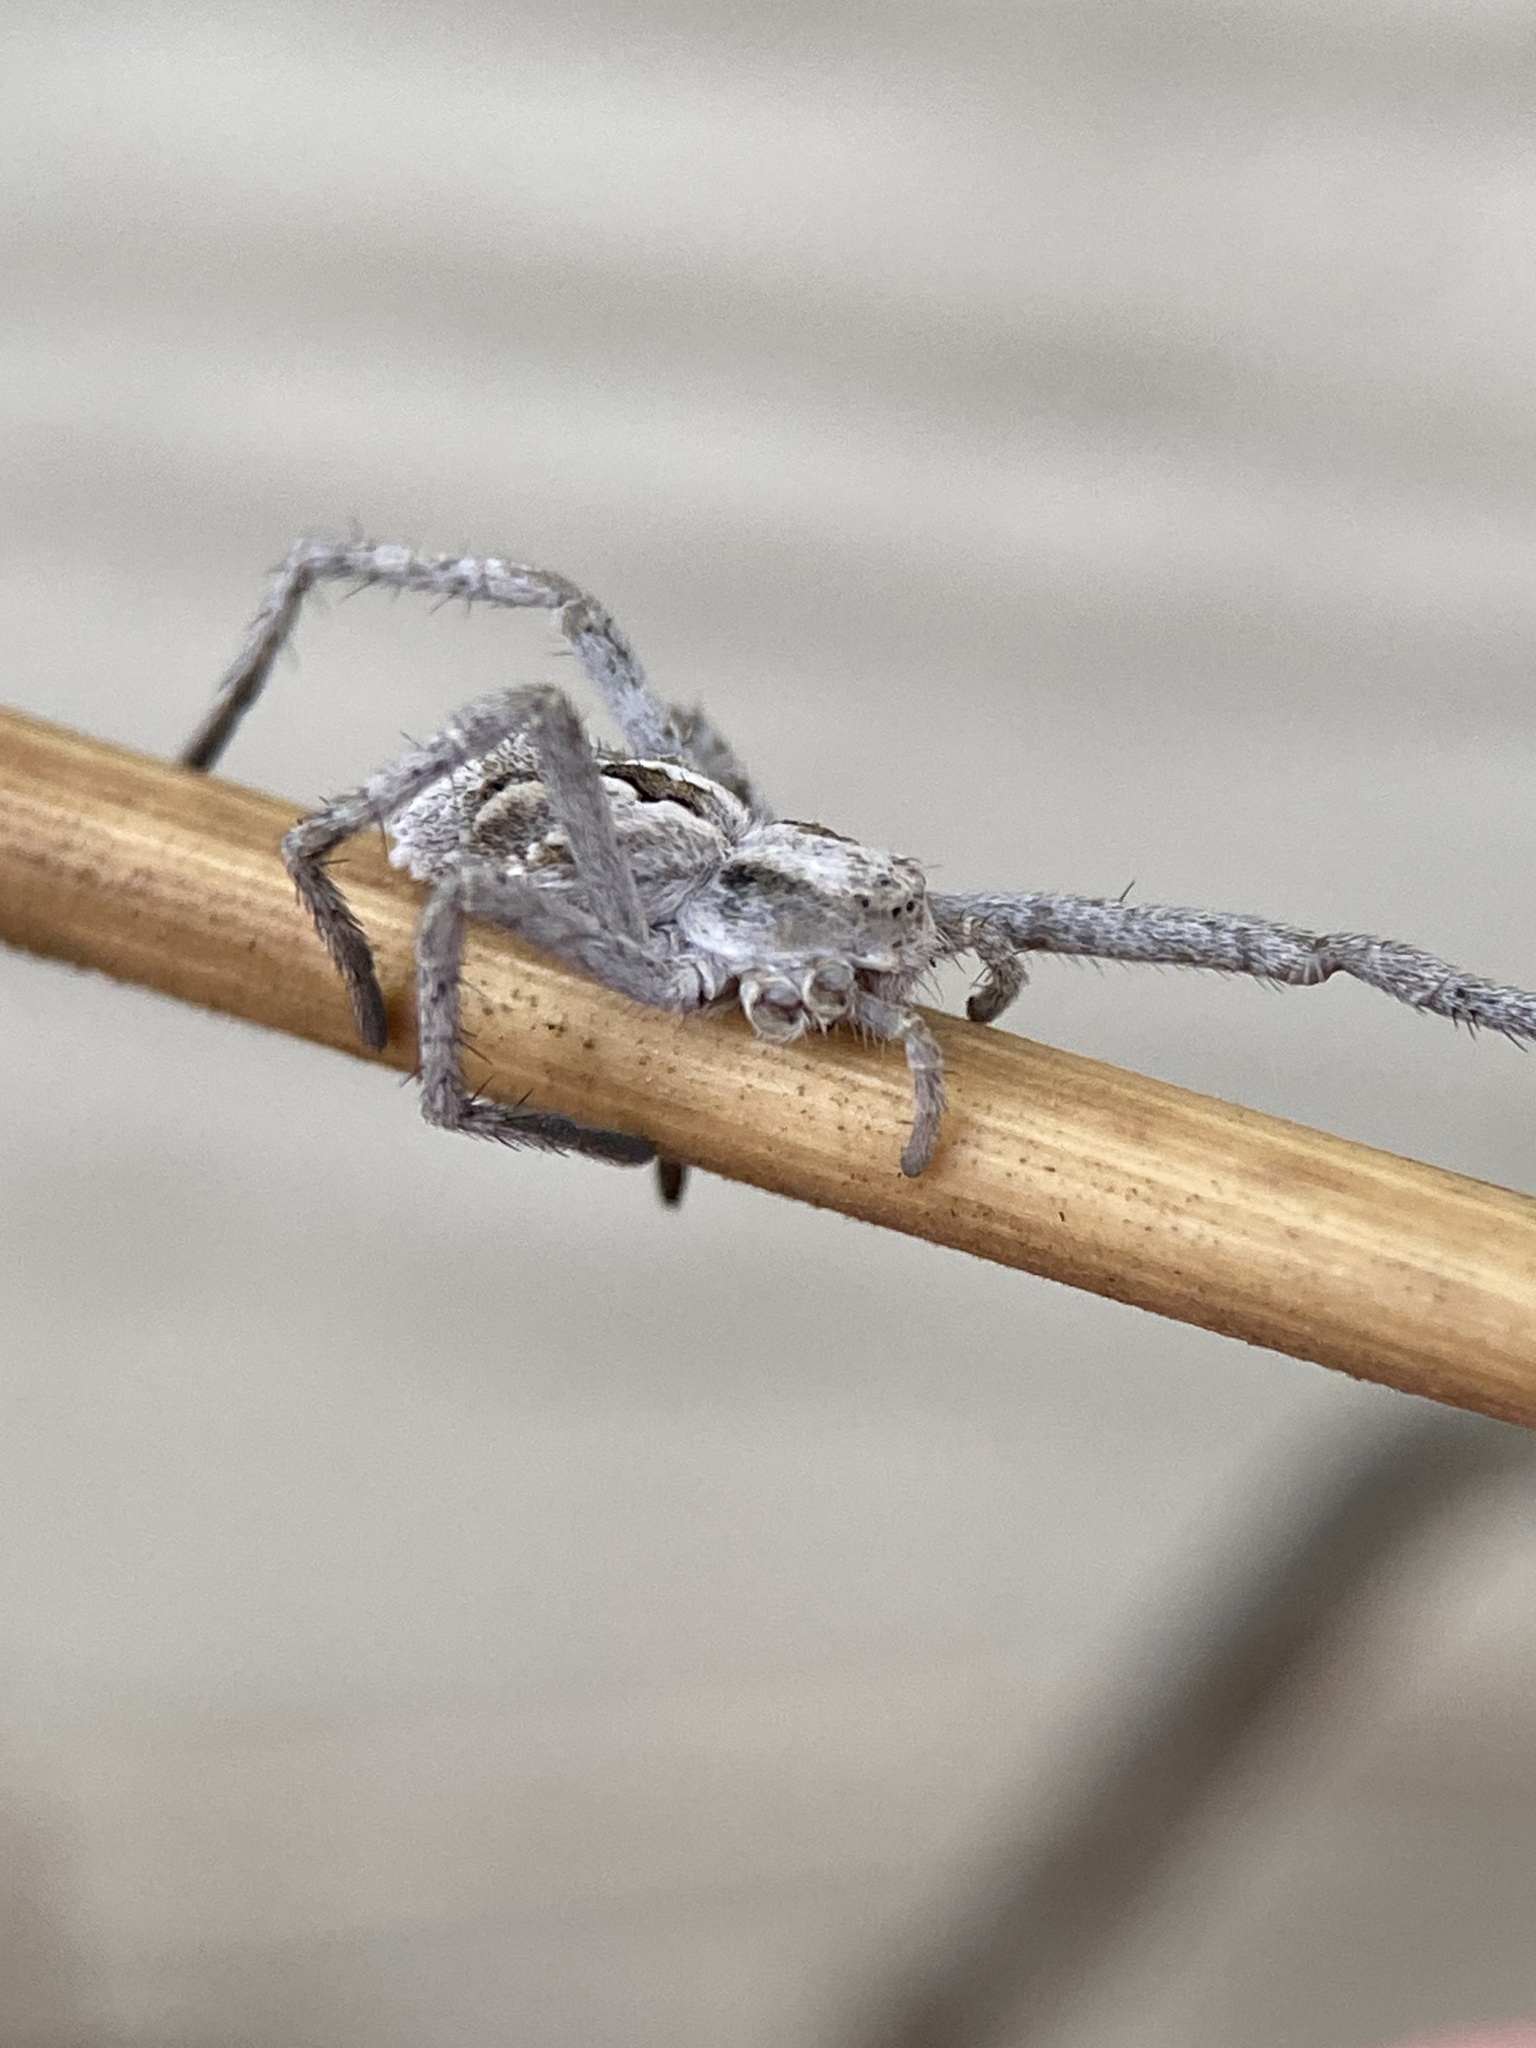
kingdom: Animalia
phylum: Arthropoda
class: Arachnida
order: Araneae
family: Philodromidae
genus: Rhysodromus
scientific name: Rhysodromus histrio
